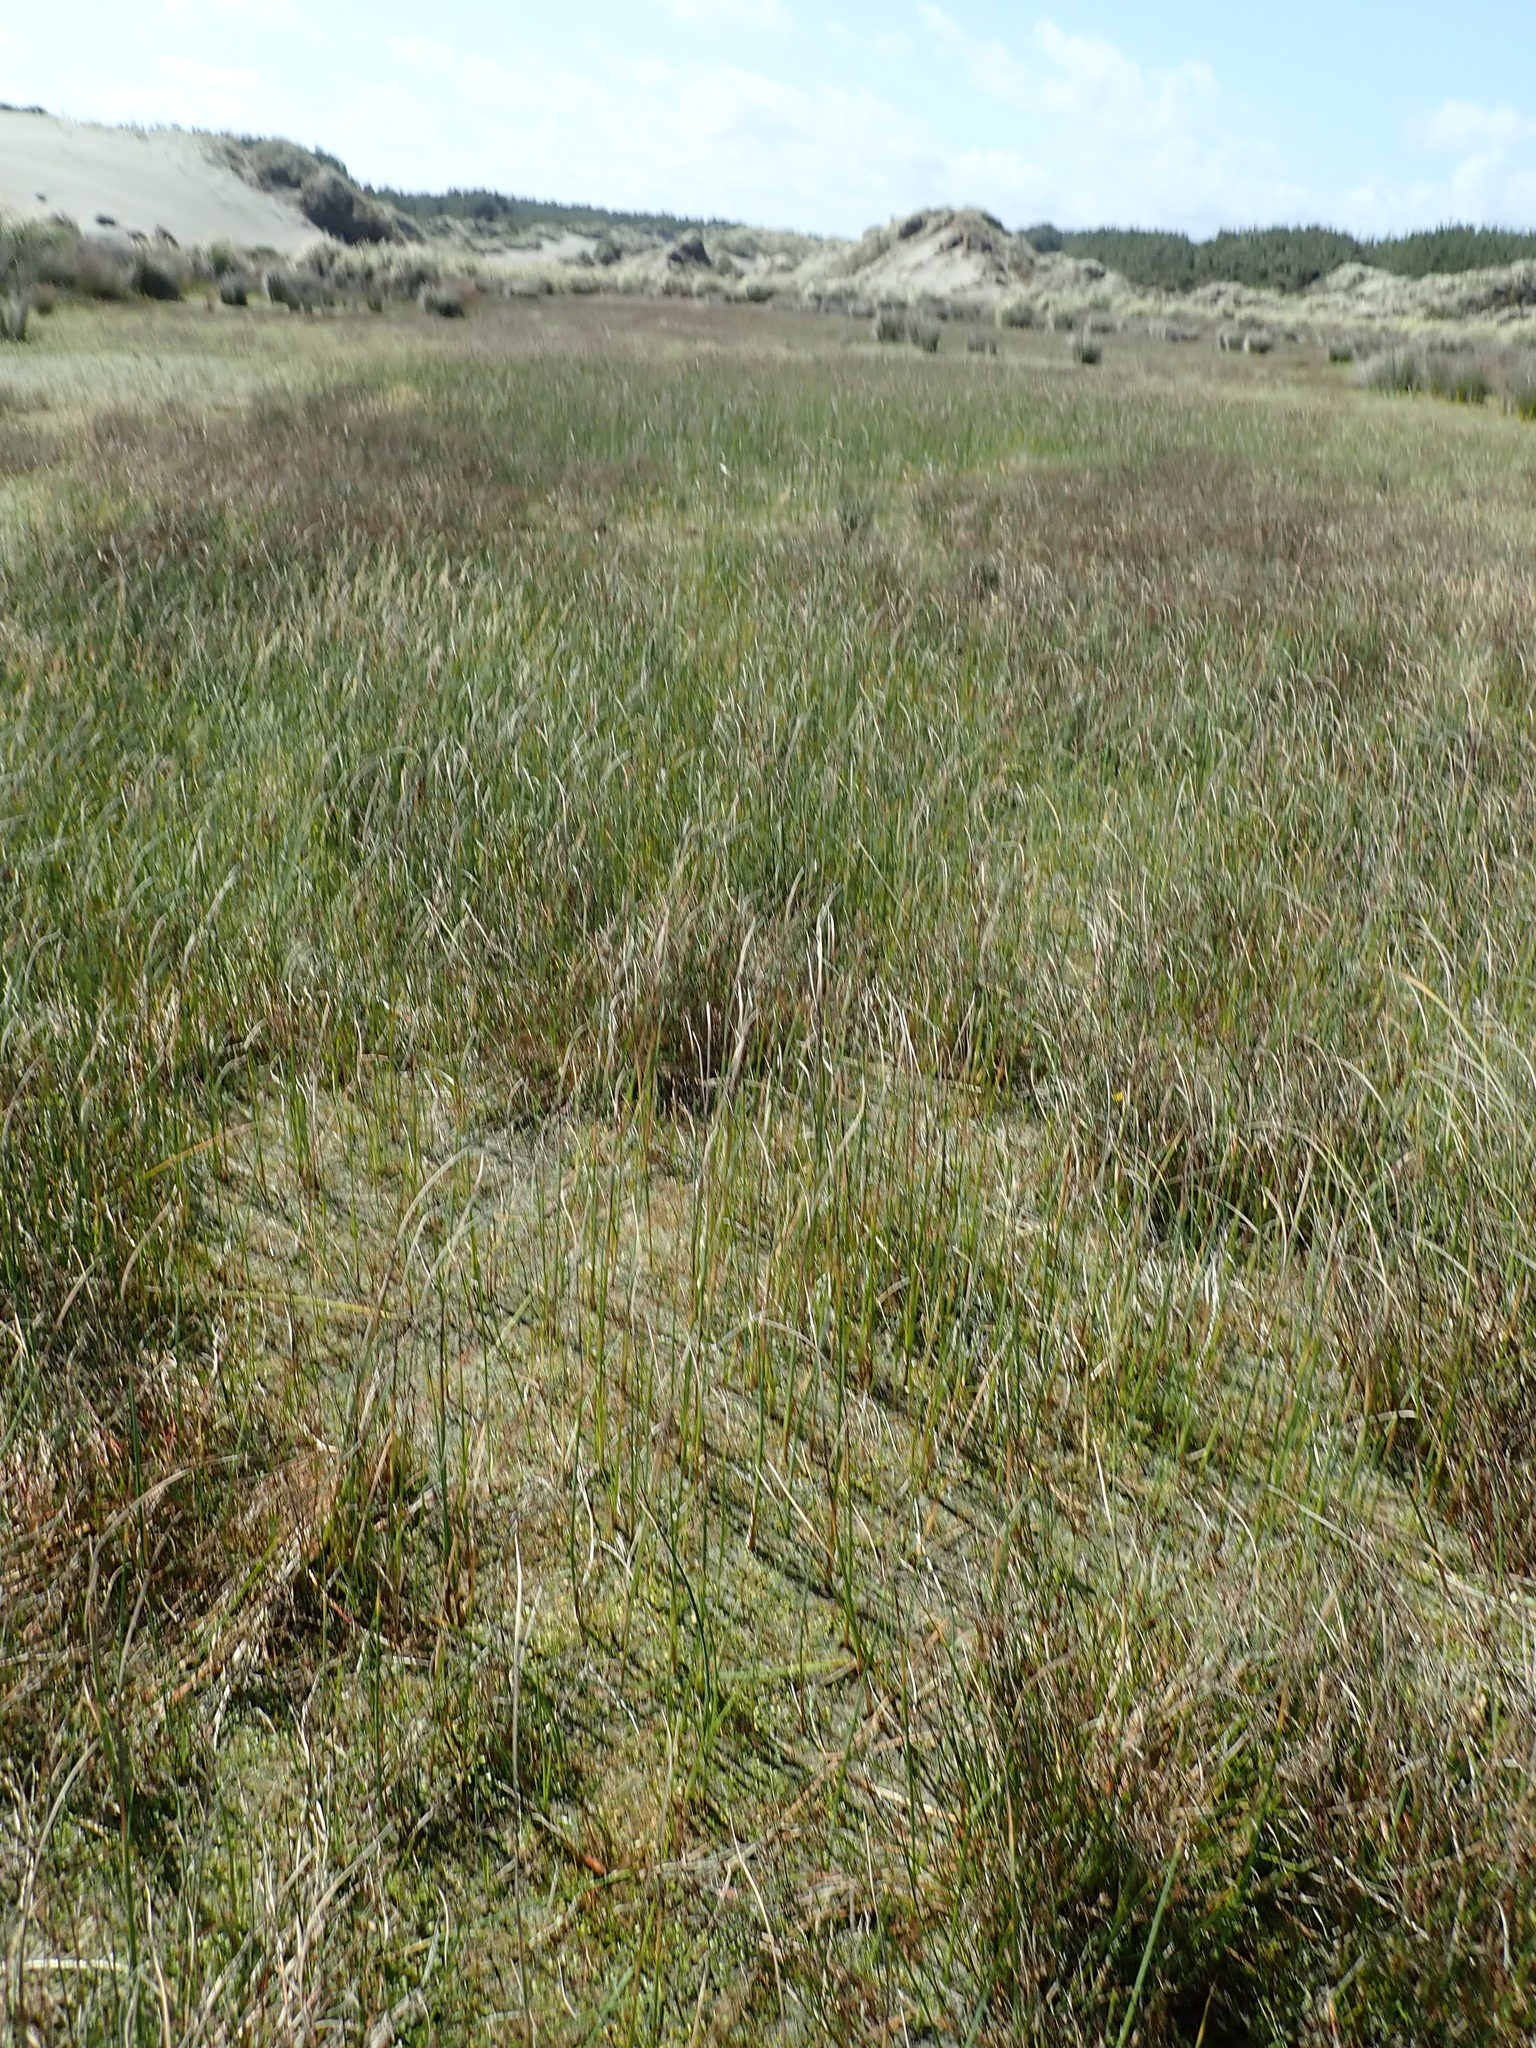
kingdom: Plantae
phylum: Tracheophyta
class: Liliopsida
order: Poales
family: Cyperaceae
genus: Schoenoplectus
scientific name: Schoenoplectus pungens
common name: Sharp club-rush
